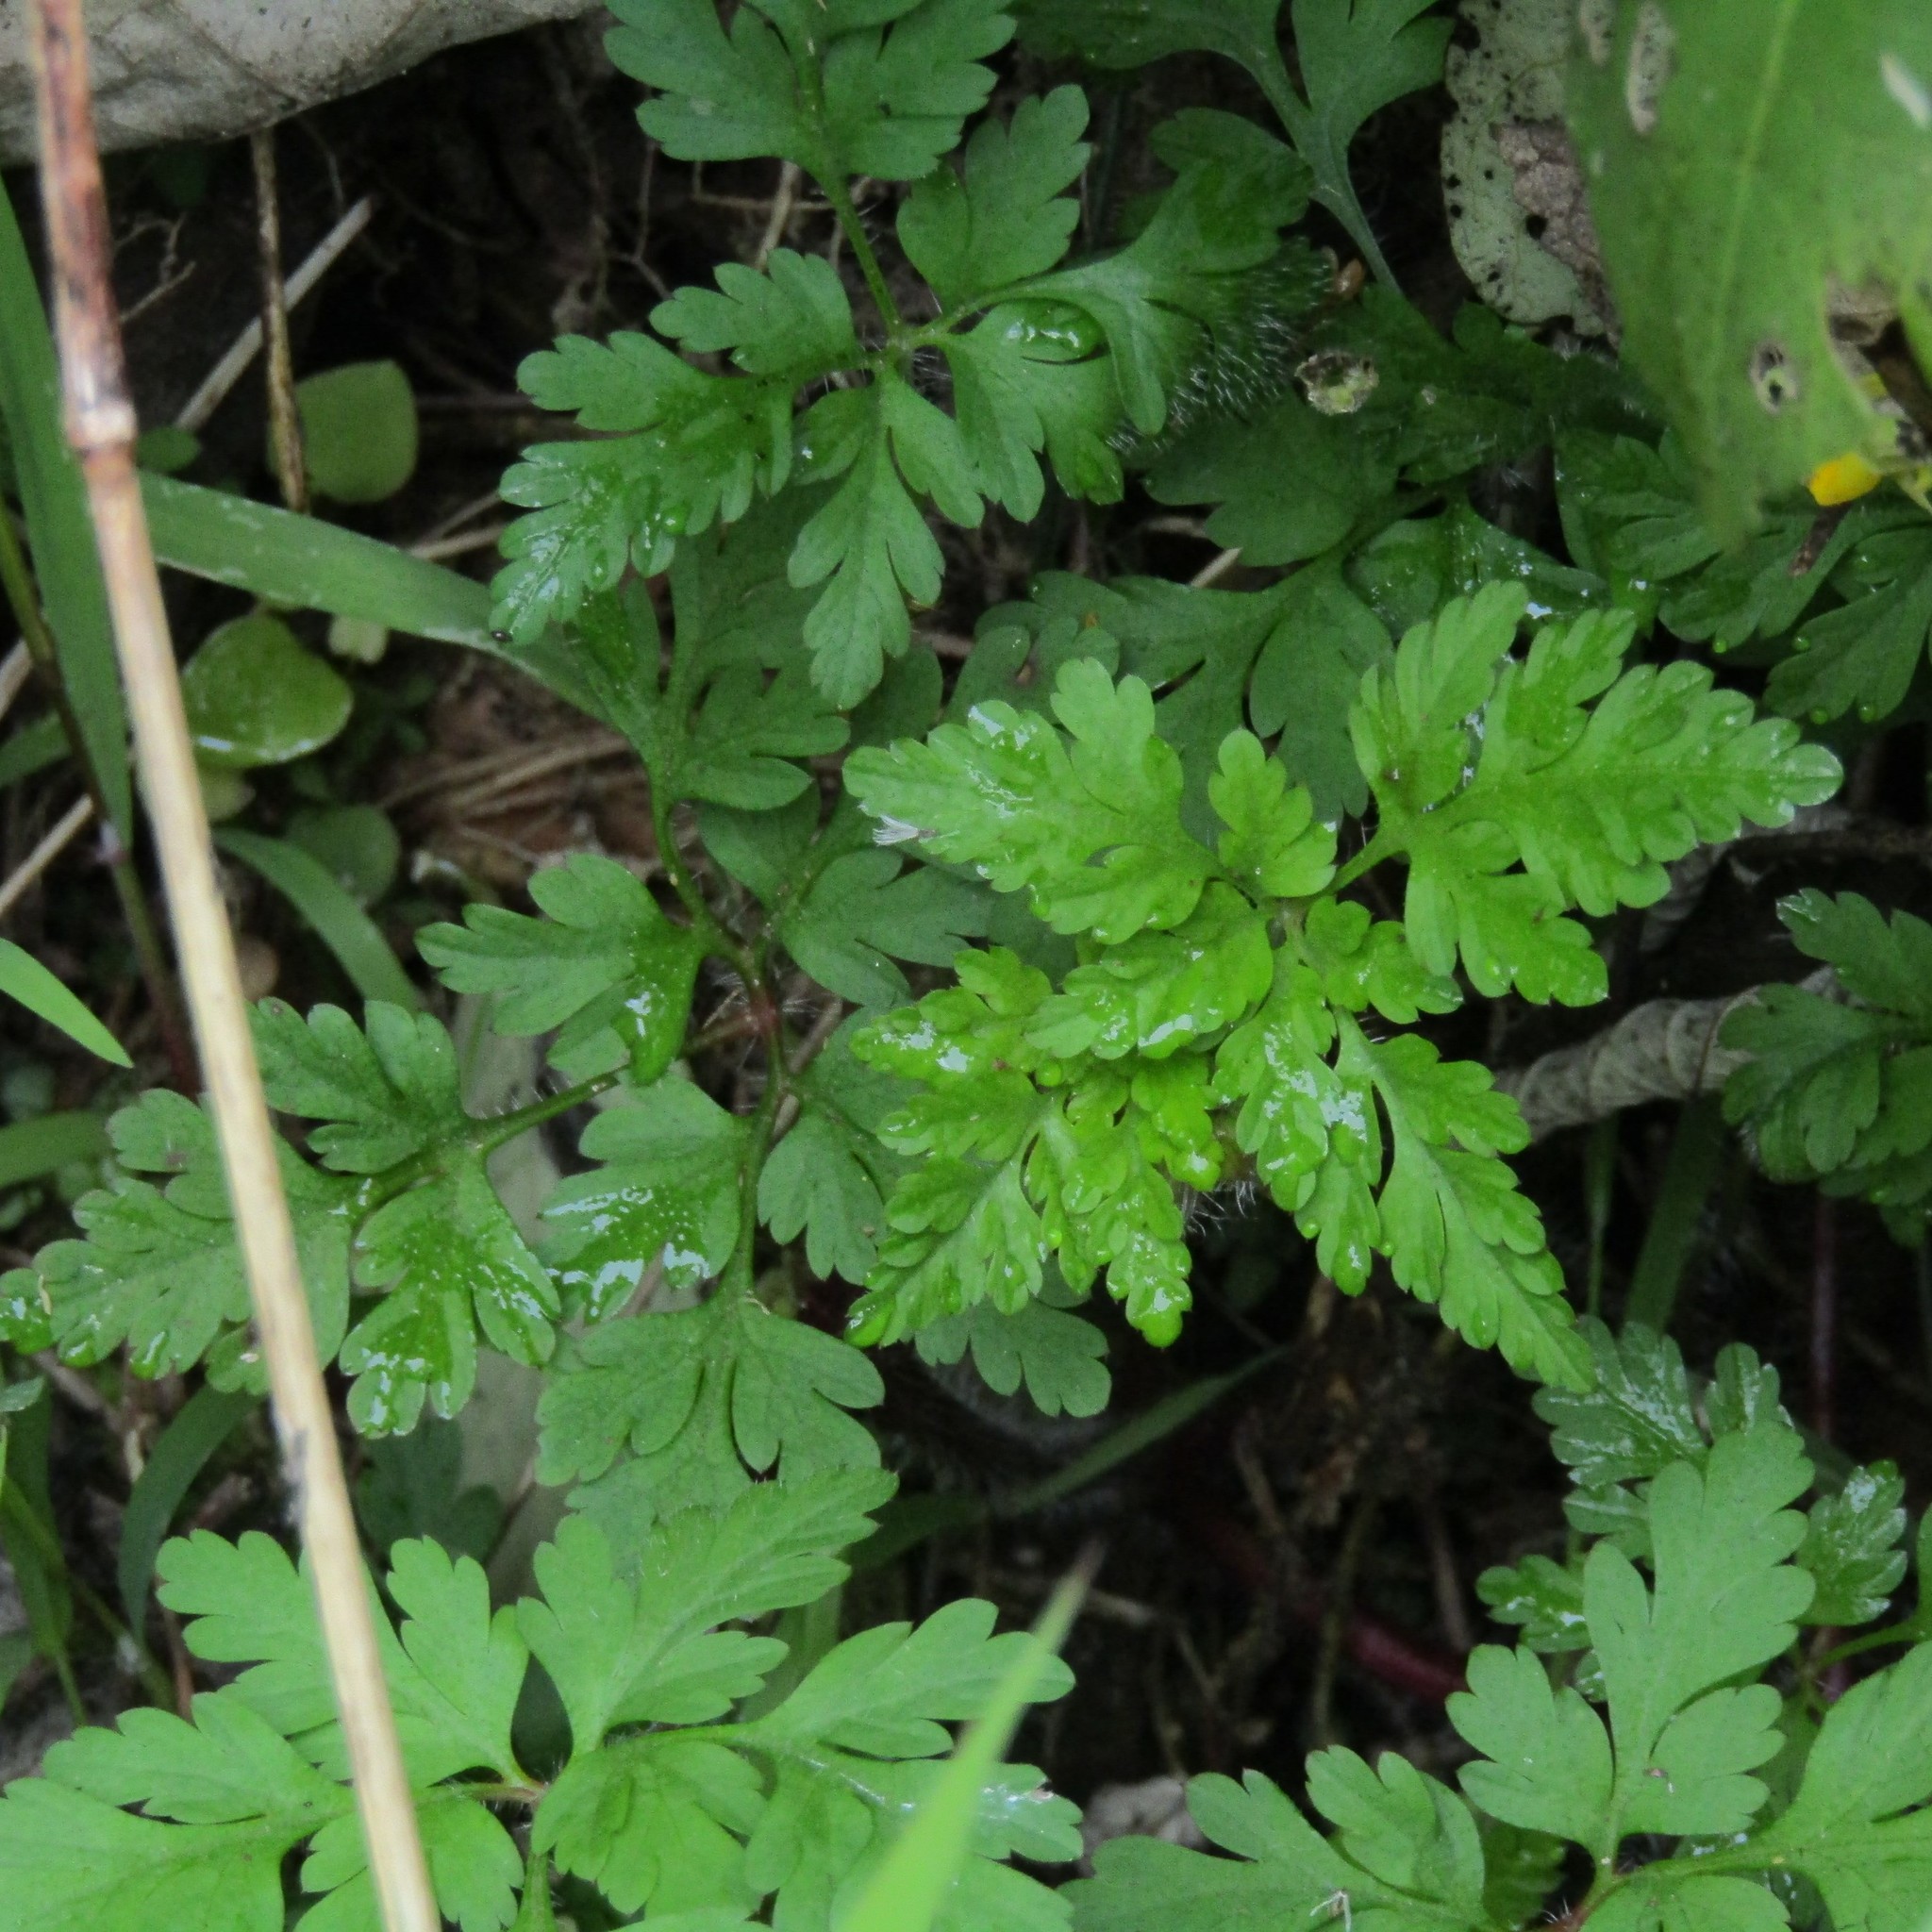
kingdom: Plantae
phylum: Tracheophyta
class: Magnoliopsida
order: Geraniales
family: Geraniaceae
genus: Geranium
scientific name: Geranium
